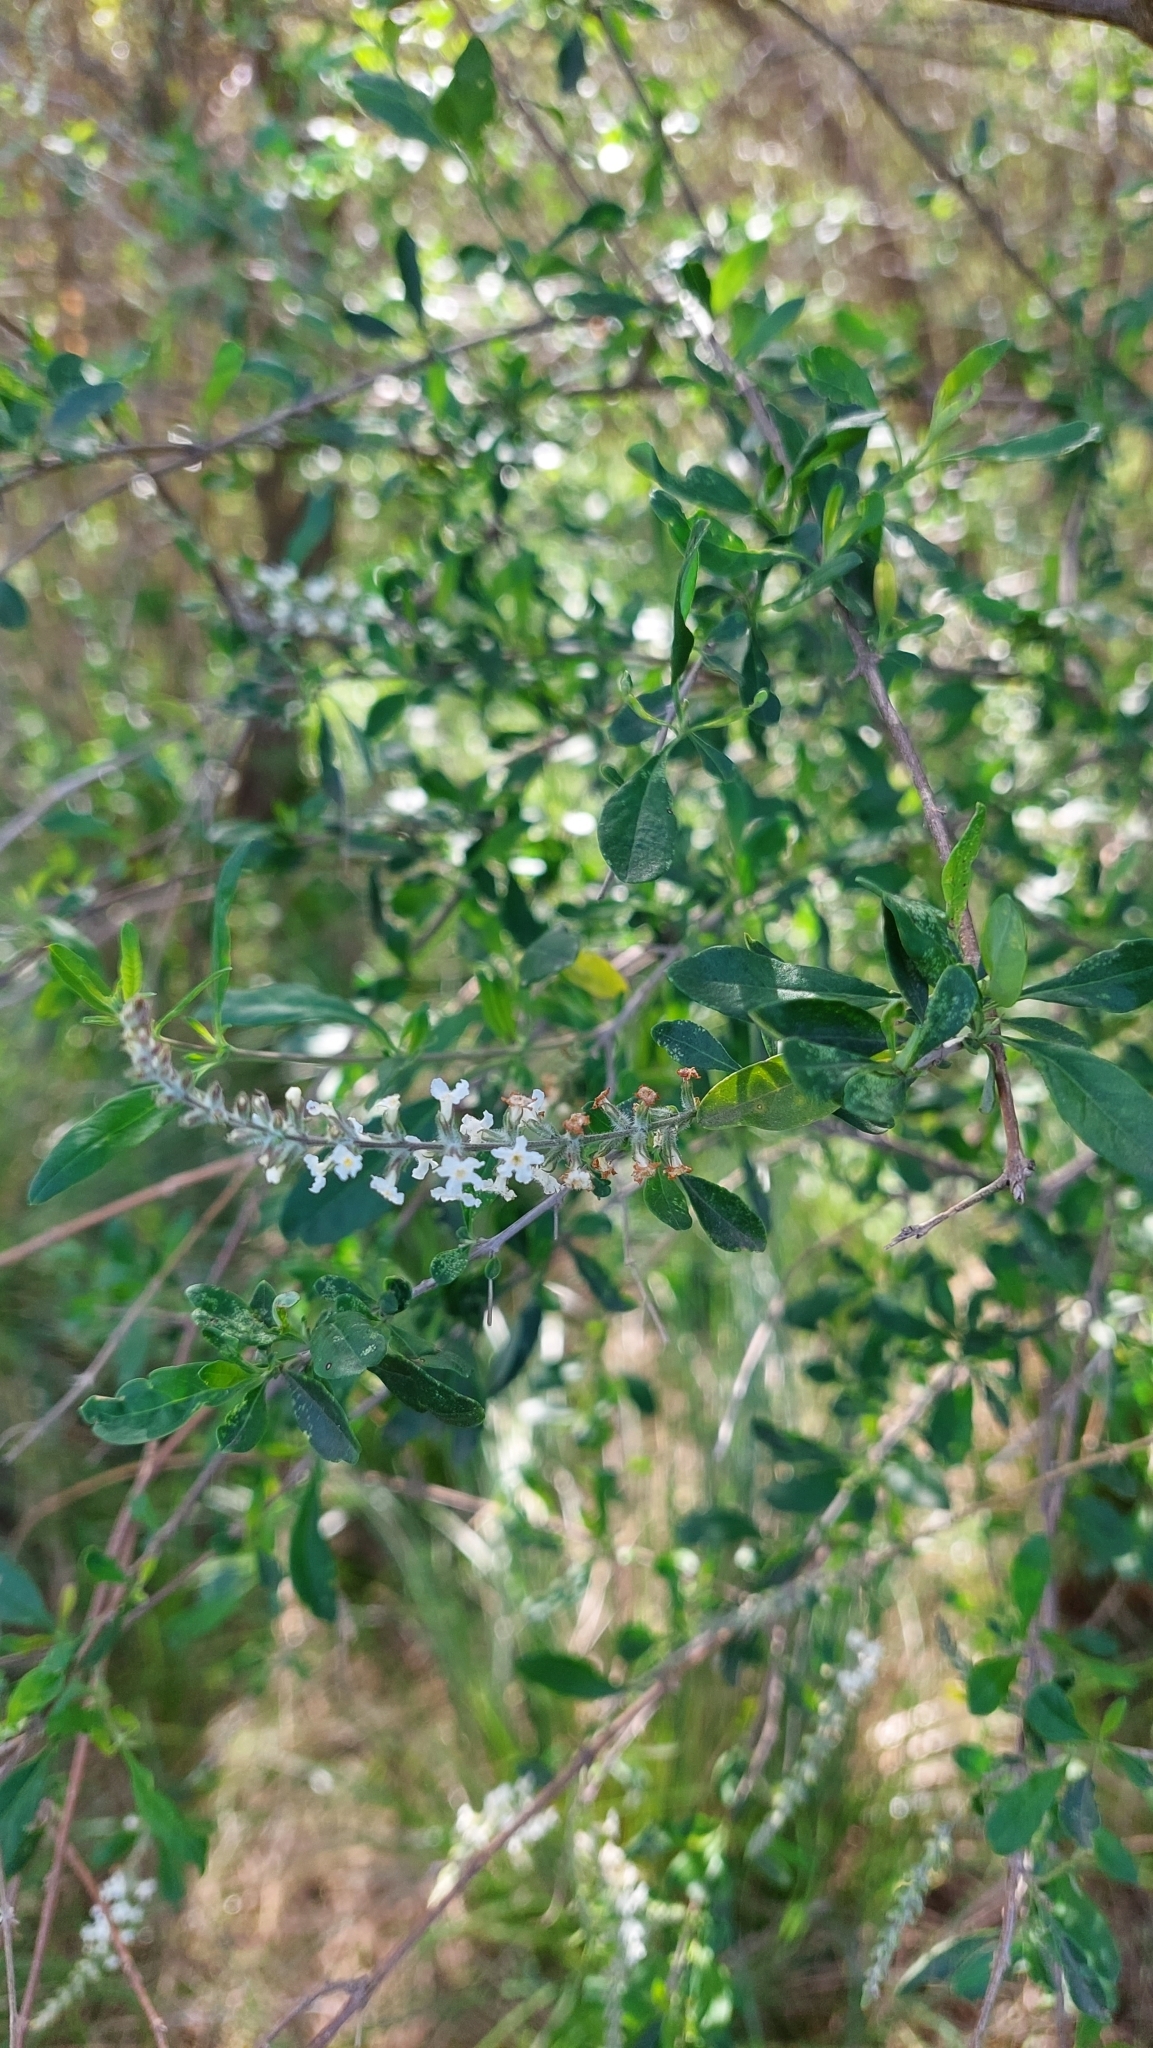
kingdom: Plantae
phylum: Tracheophyta
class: Magnoliopsida
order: Lamiales
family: Verbenaceae
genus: Aloysia
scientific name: Aloysia gratissima
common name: Common bee-brush
